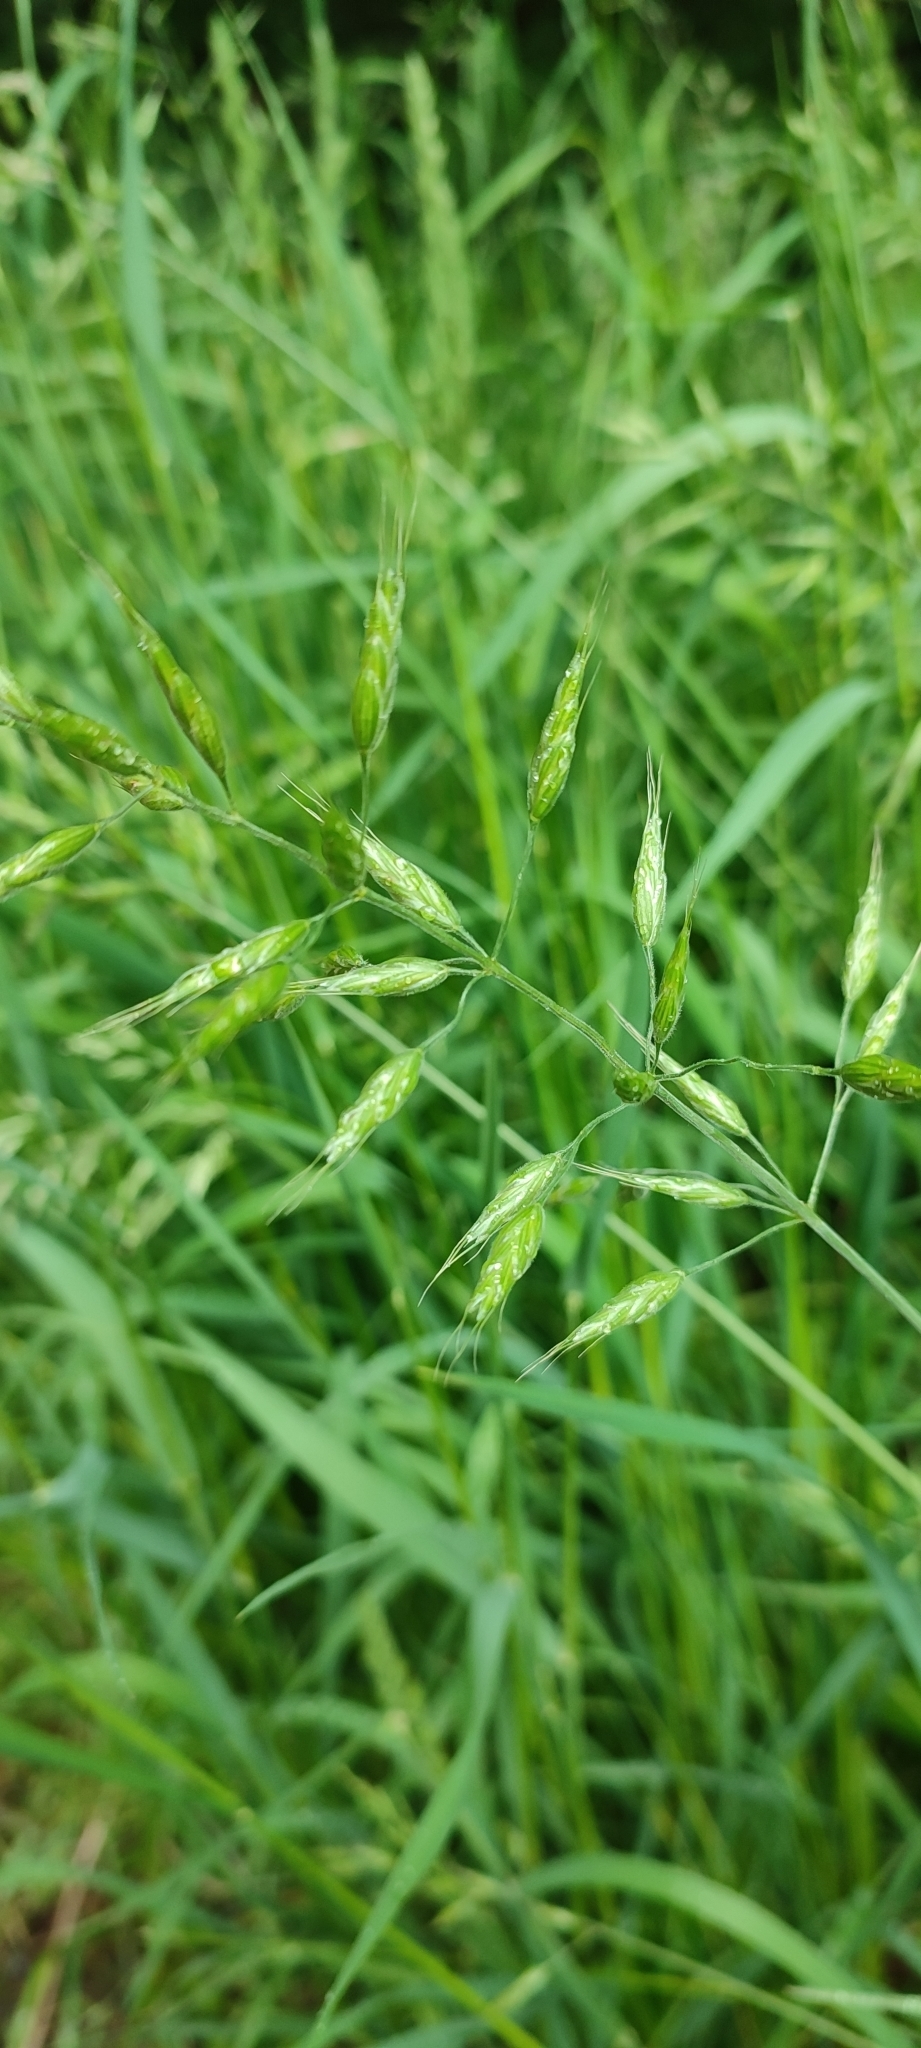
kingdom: Plantae
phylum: Tracheophyta
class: Liliopsida
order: Poales
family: Poaceae
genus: Bromus
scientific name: Bromus hordeaceus
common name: Soft brome
